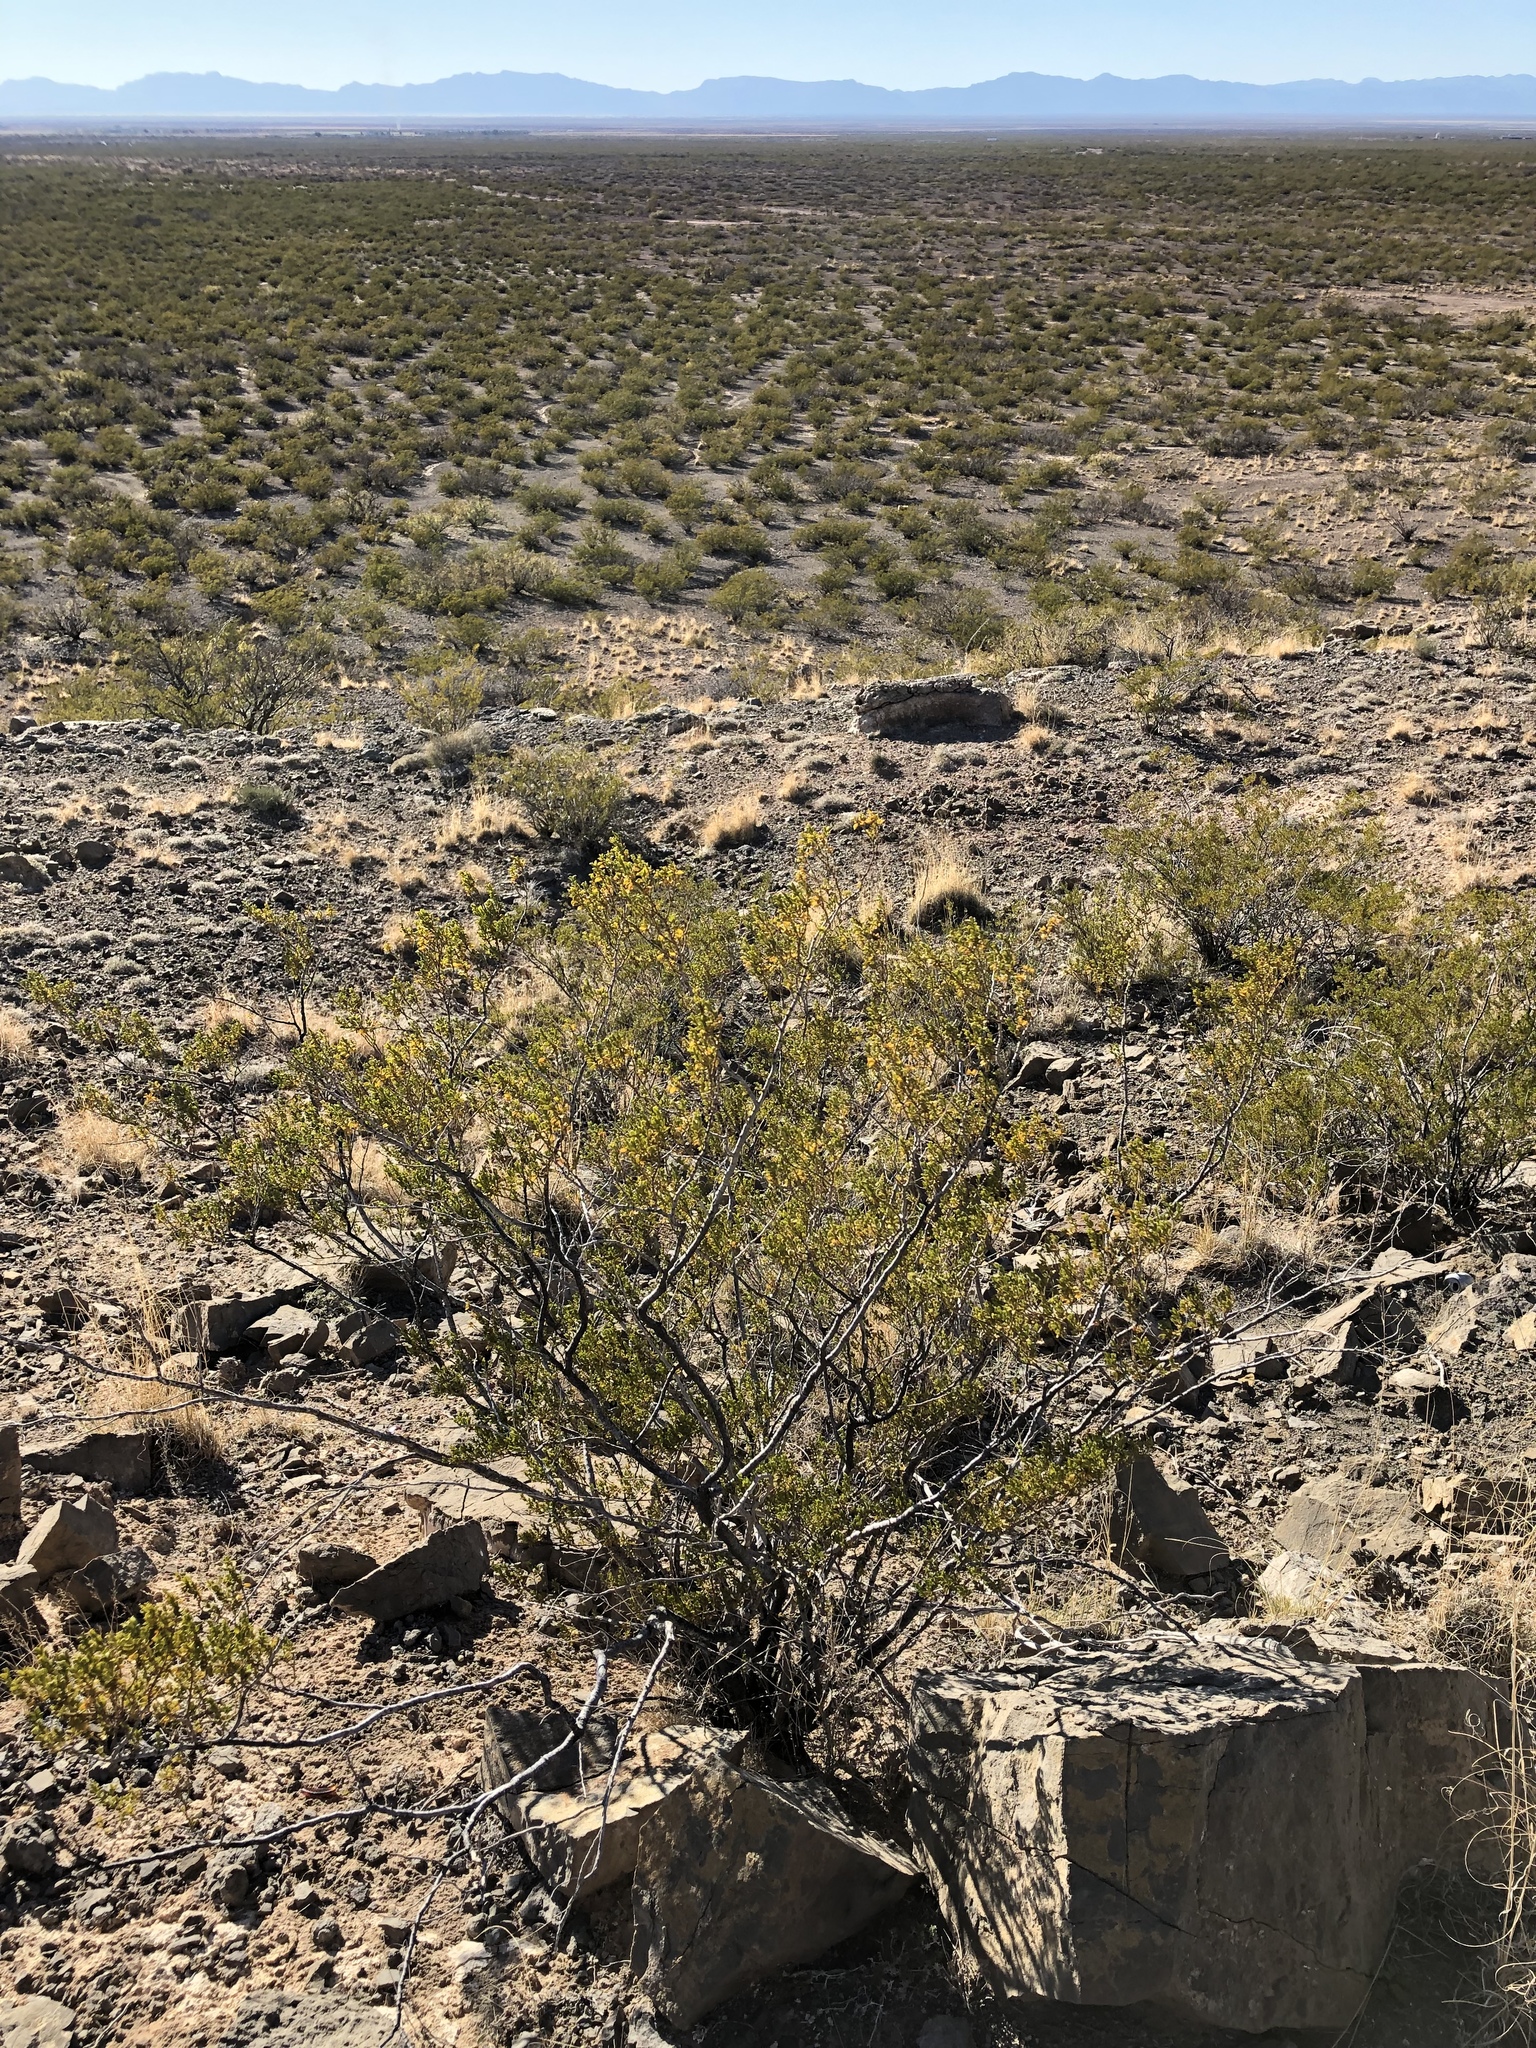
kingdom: Plantae
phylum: Tracheophyta
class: Magnoliopsida
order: Zygophyllales
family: Zygophyllaceae
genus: Larrea
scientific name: Larrea tridentata
